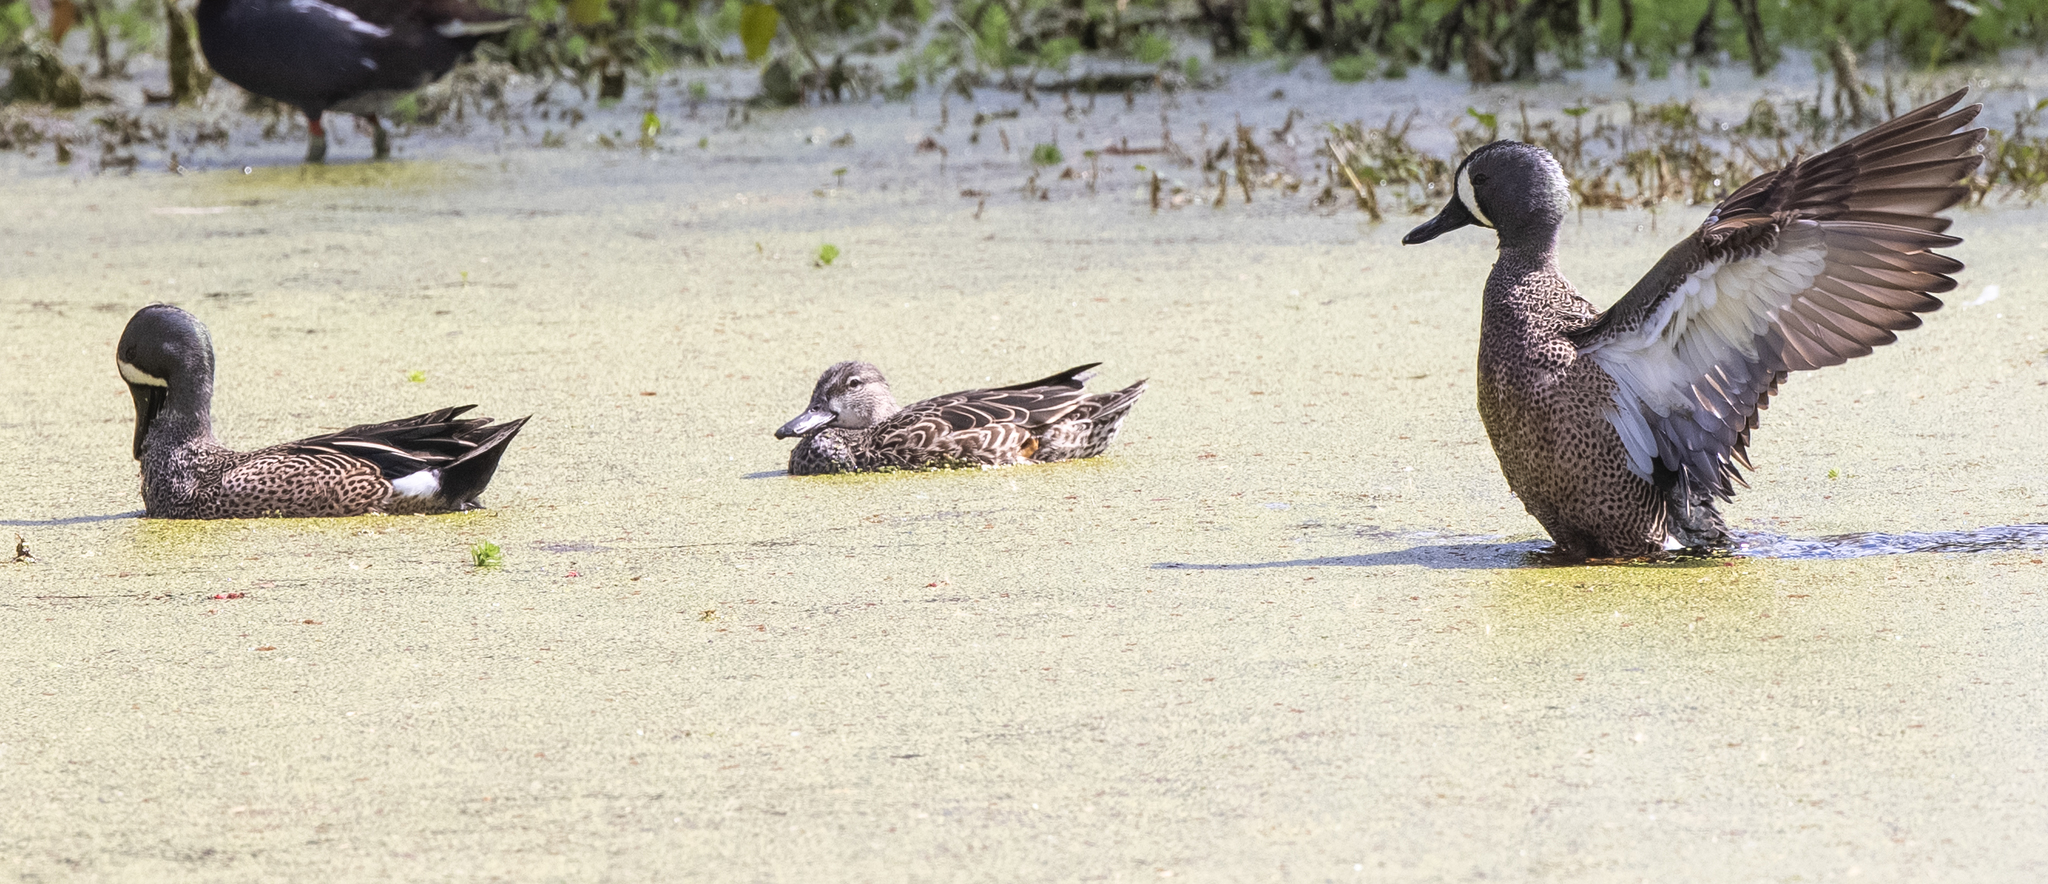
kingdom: Animalia
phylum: Chordata
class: Aves
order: Anseriformes
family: Anatidae
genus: Spatula
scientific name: Spatula discors
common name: Blue-winged teal
